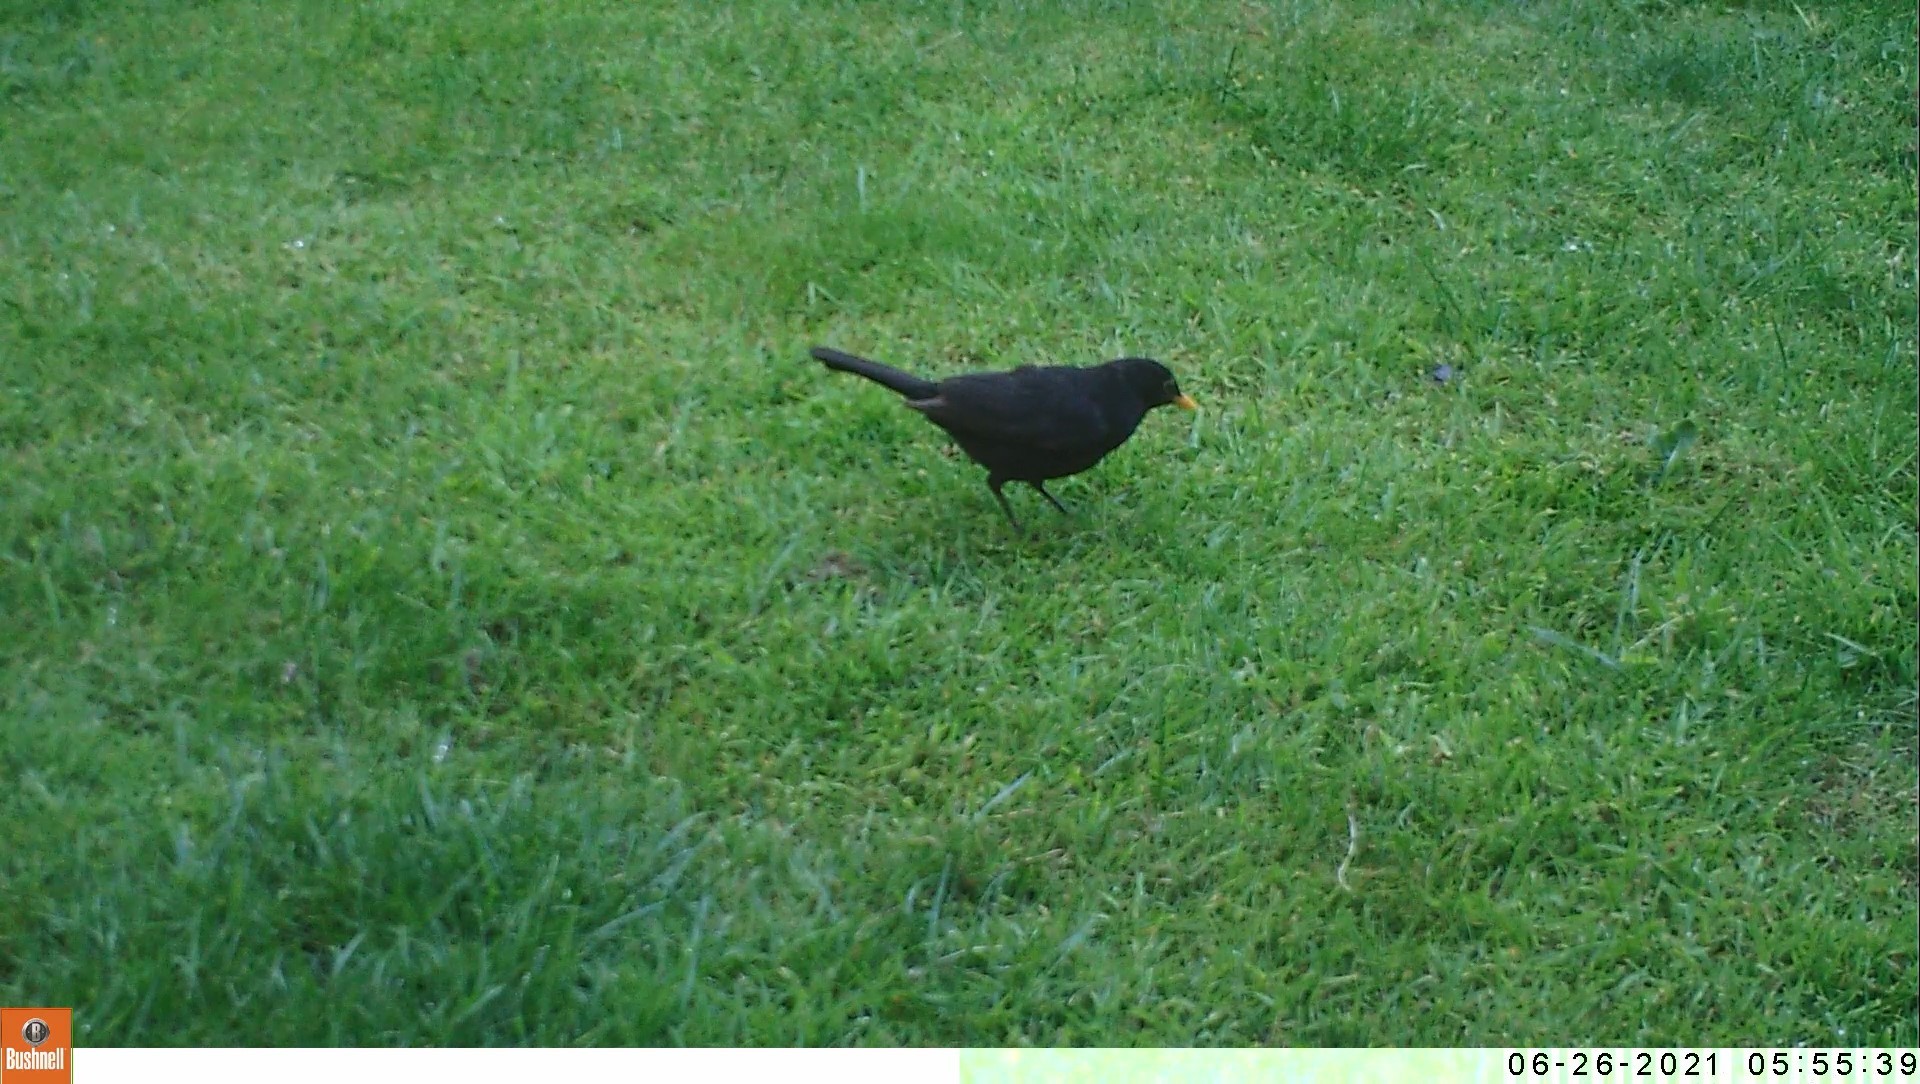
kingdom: Animalia
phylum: Chordata
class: Aves
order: Passeriformes
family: Turdidae
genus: Turdus
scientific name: Turdus merula
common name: Common blackbird
